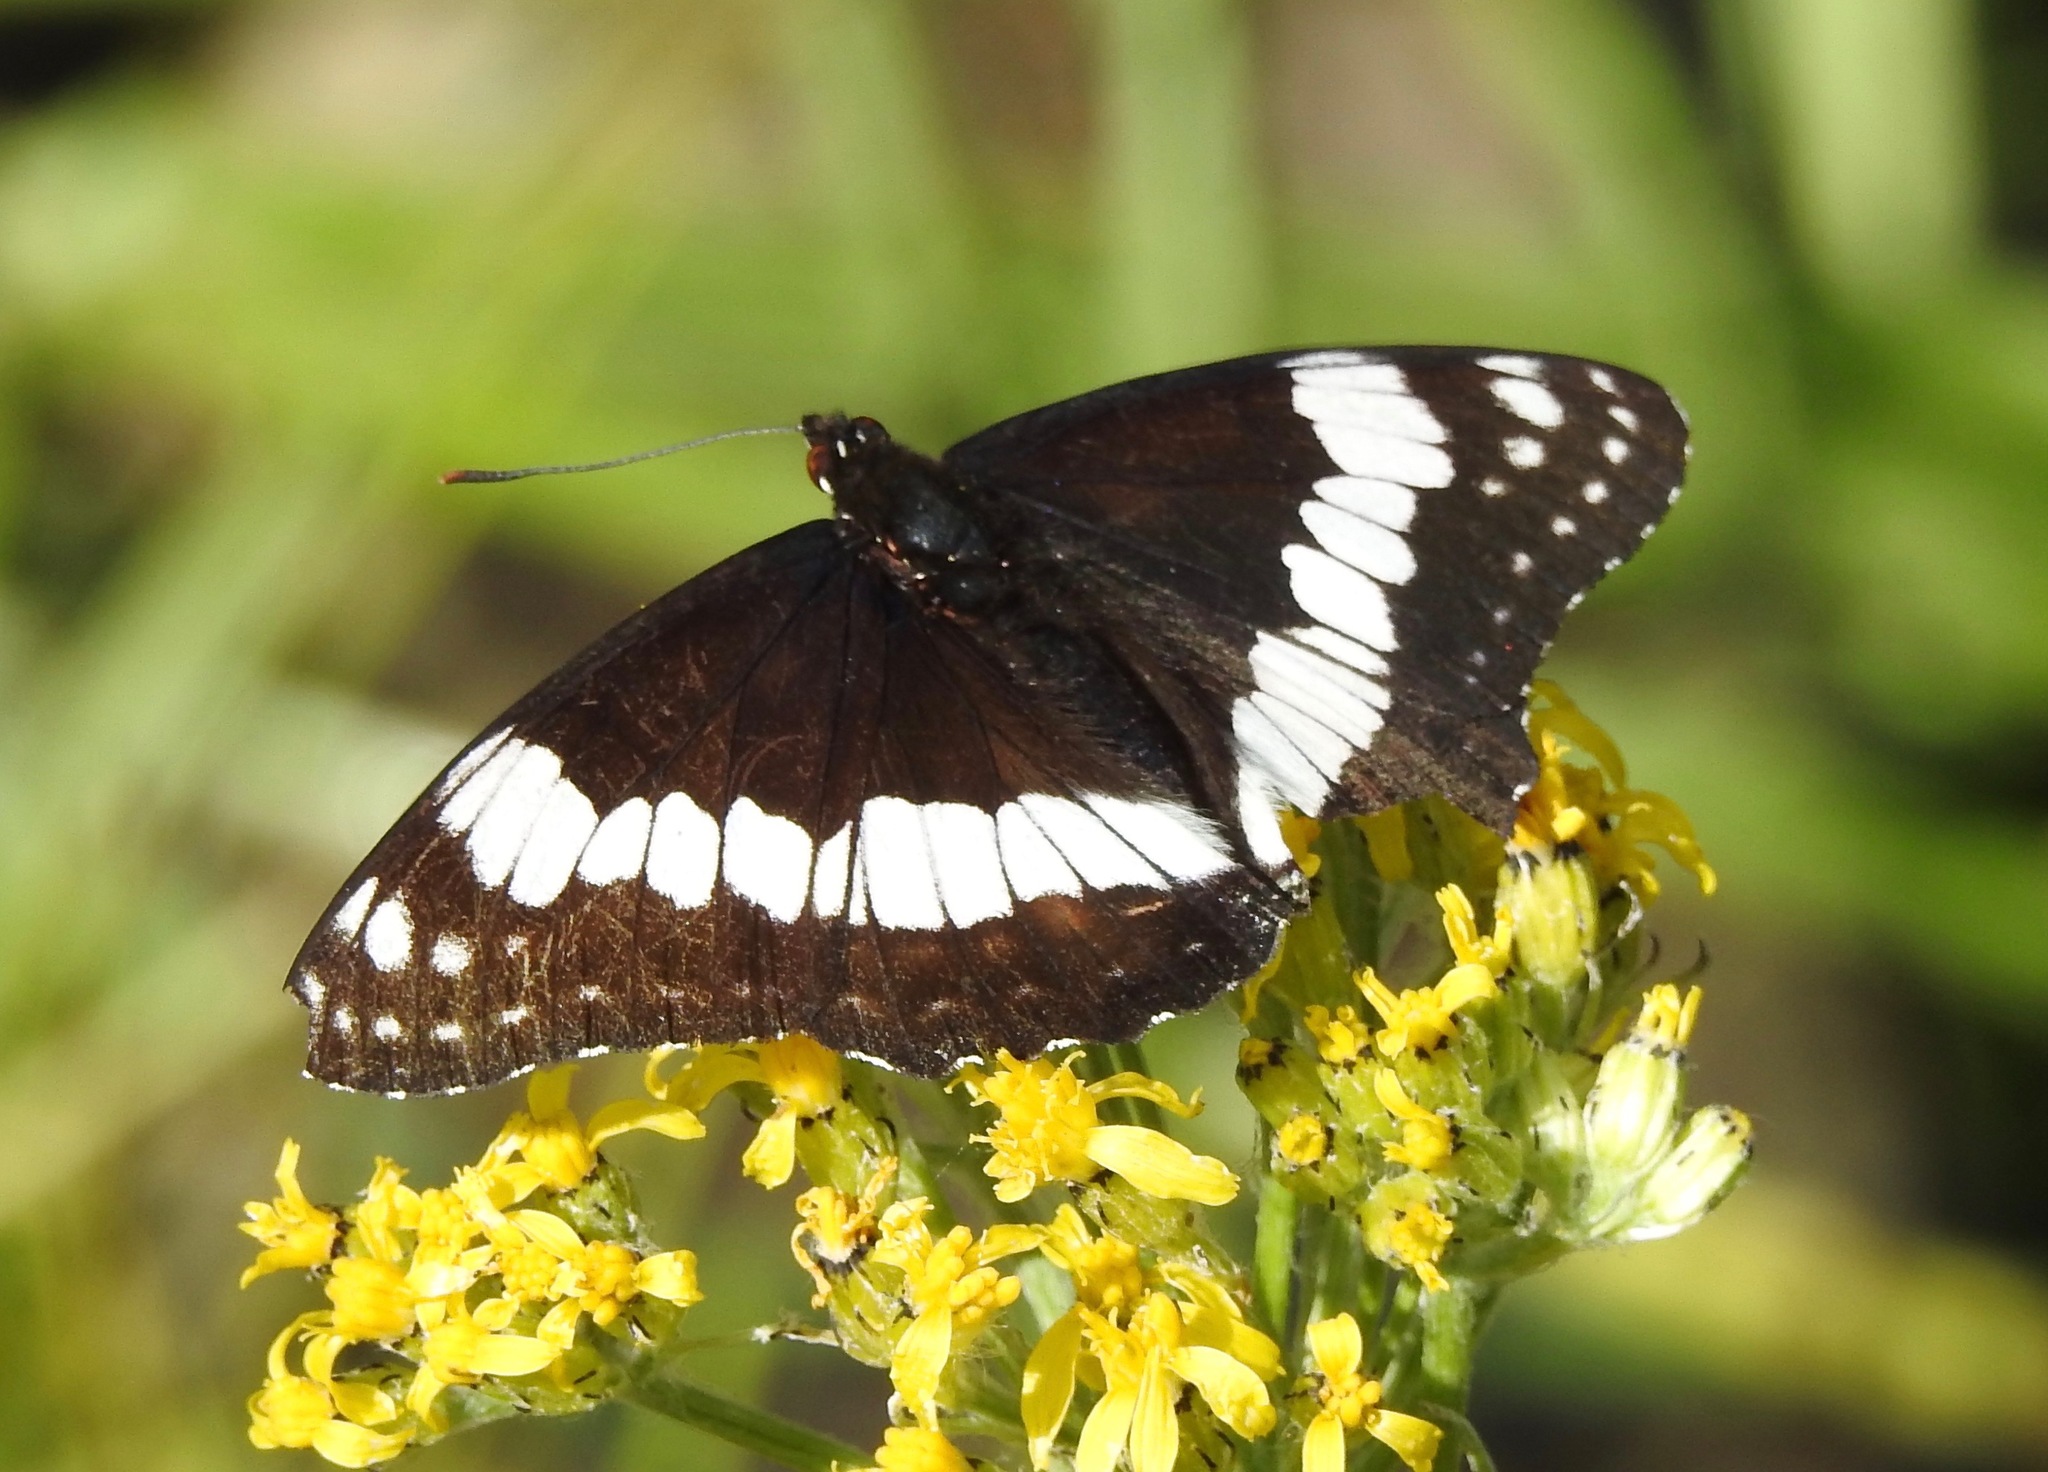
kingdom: Animalia
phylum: Arthropoda
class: Insecta
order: Lepidoptera
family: Nymphalidae
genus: Limenitis
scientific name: Limenitis weidemeyerii
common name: Weidemeyer's admiral
